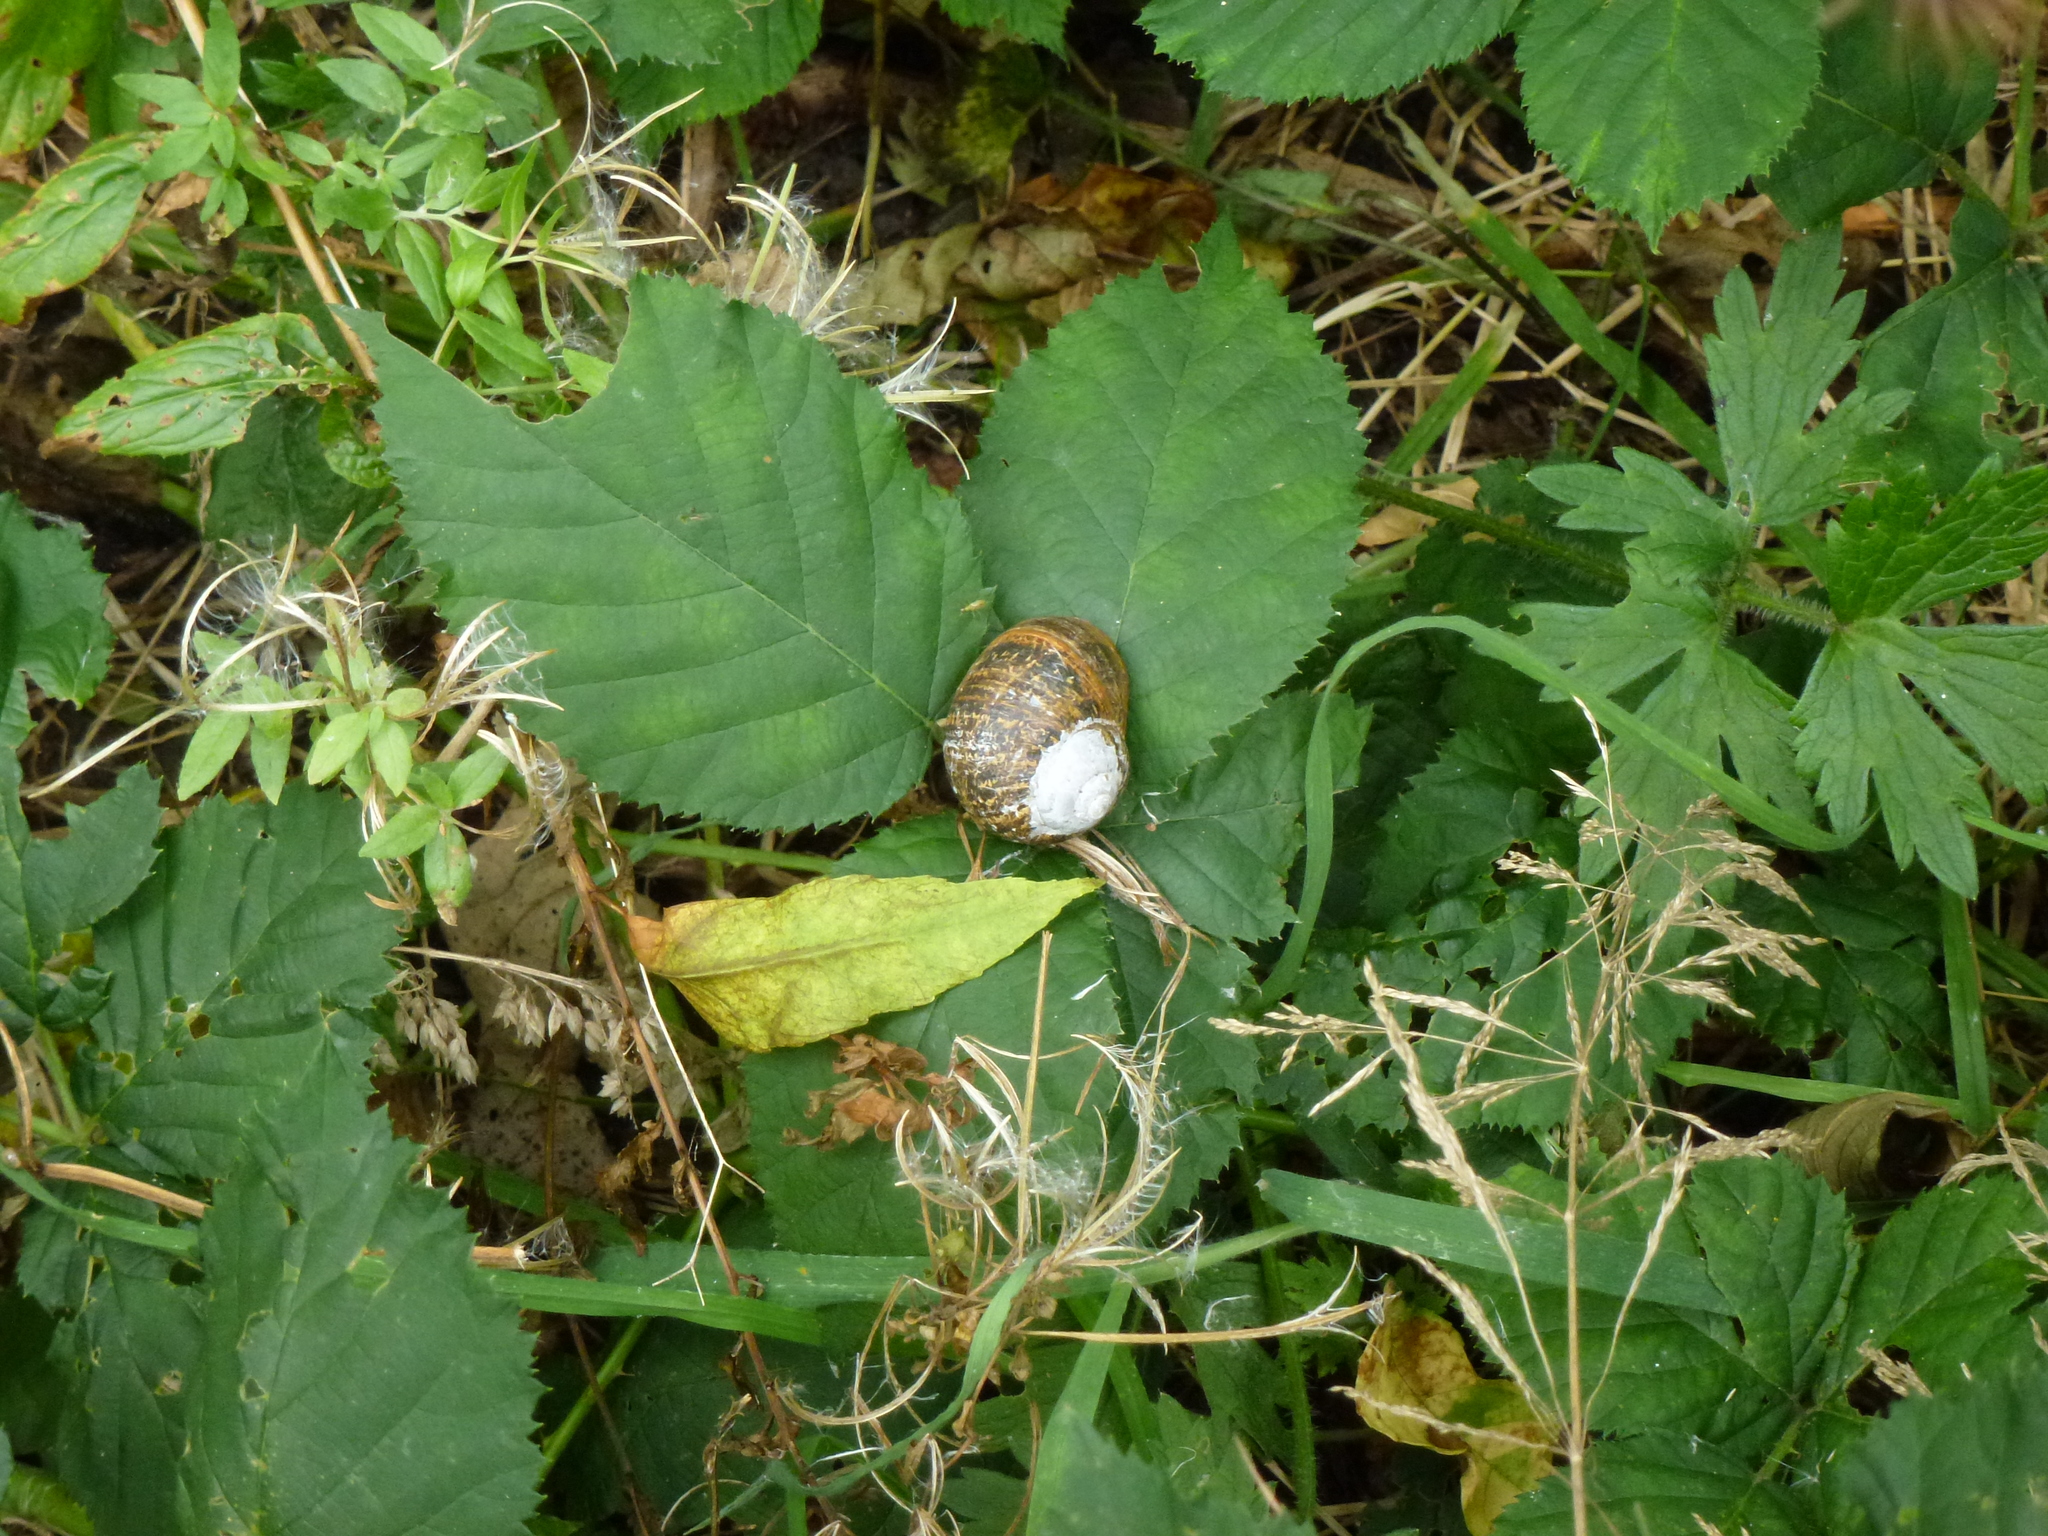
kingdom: Animalia
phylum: Mollusca
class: Gastropoda
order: Stylommatophora
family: Helicidae
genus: Cornu
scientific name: Cornu aspersum
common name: Brown garden snail
